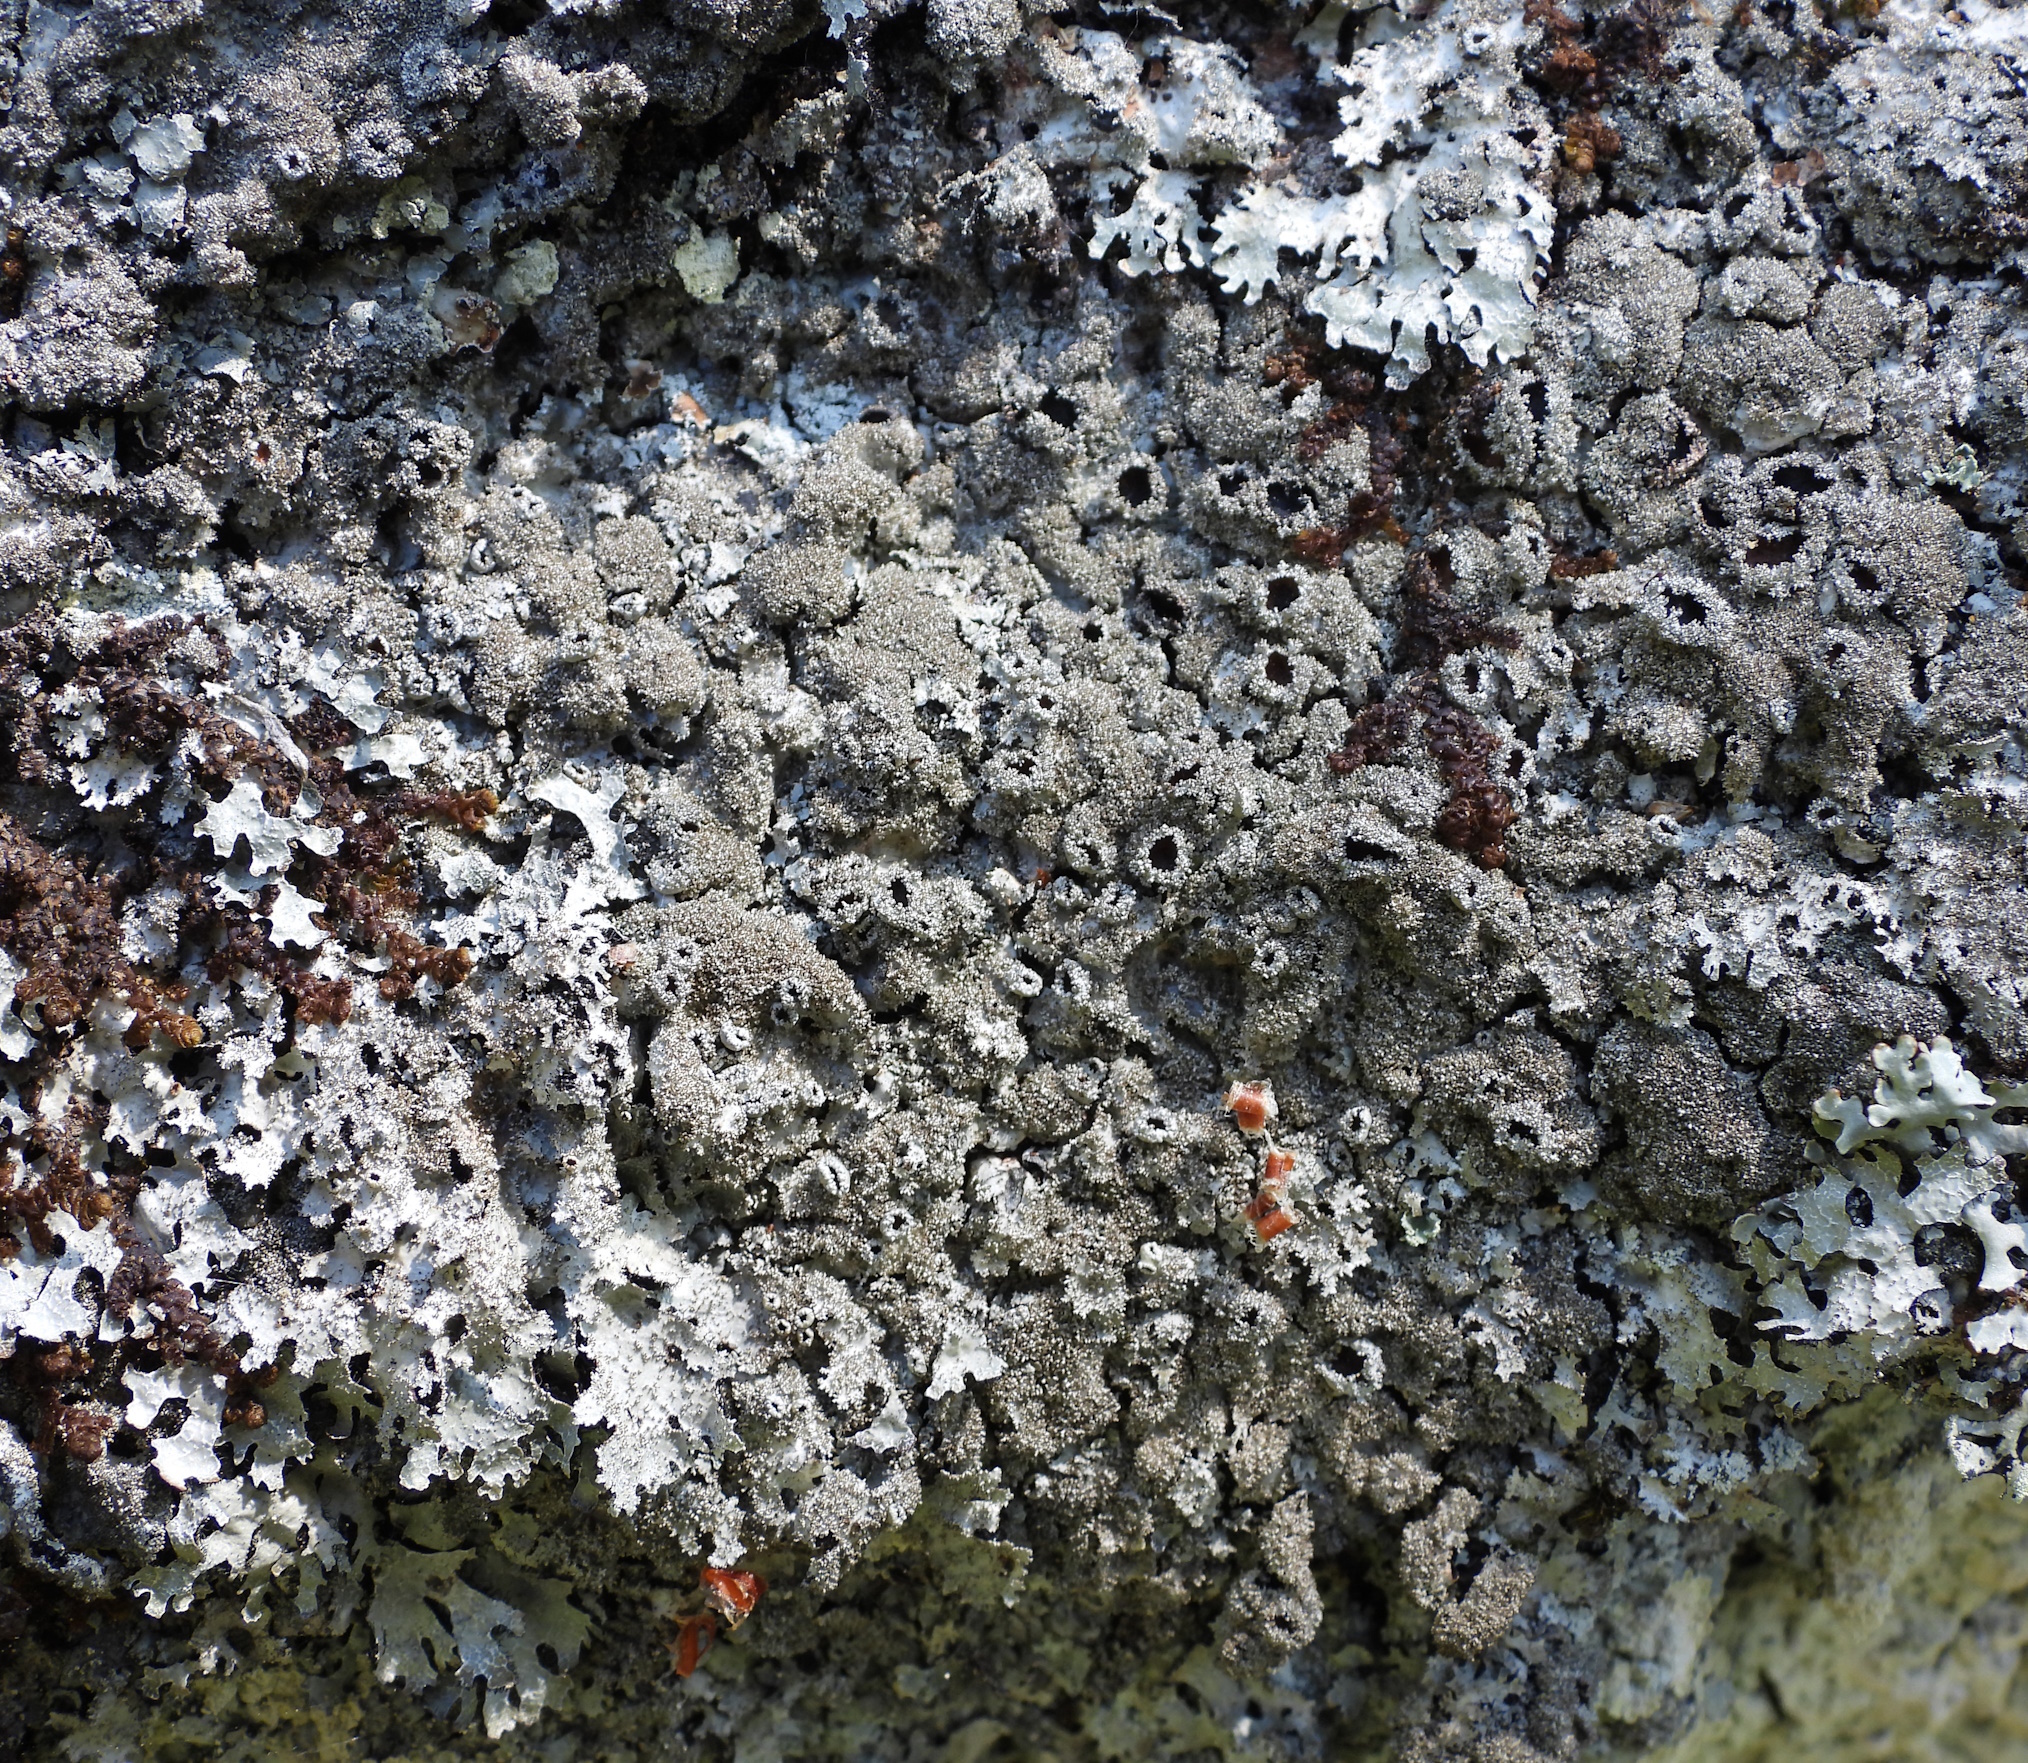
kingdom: Fungi
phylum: Ascomycota
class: Lecanoromycetes
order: Lecanorales
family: Parmeliaceae
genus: Parmelia
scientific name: Parmelia saxatilis
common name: Salted shield lichen
